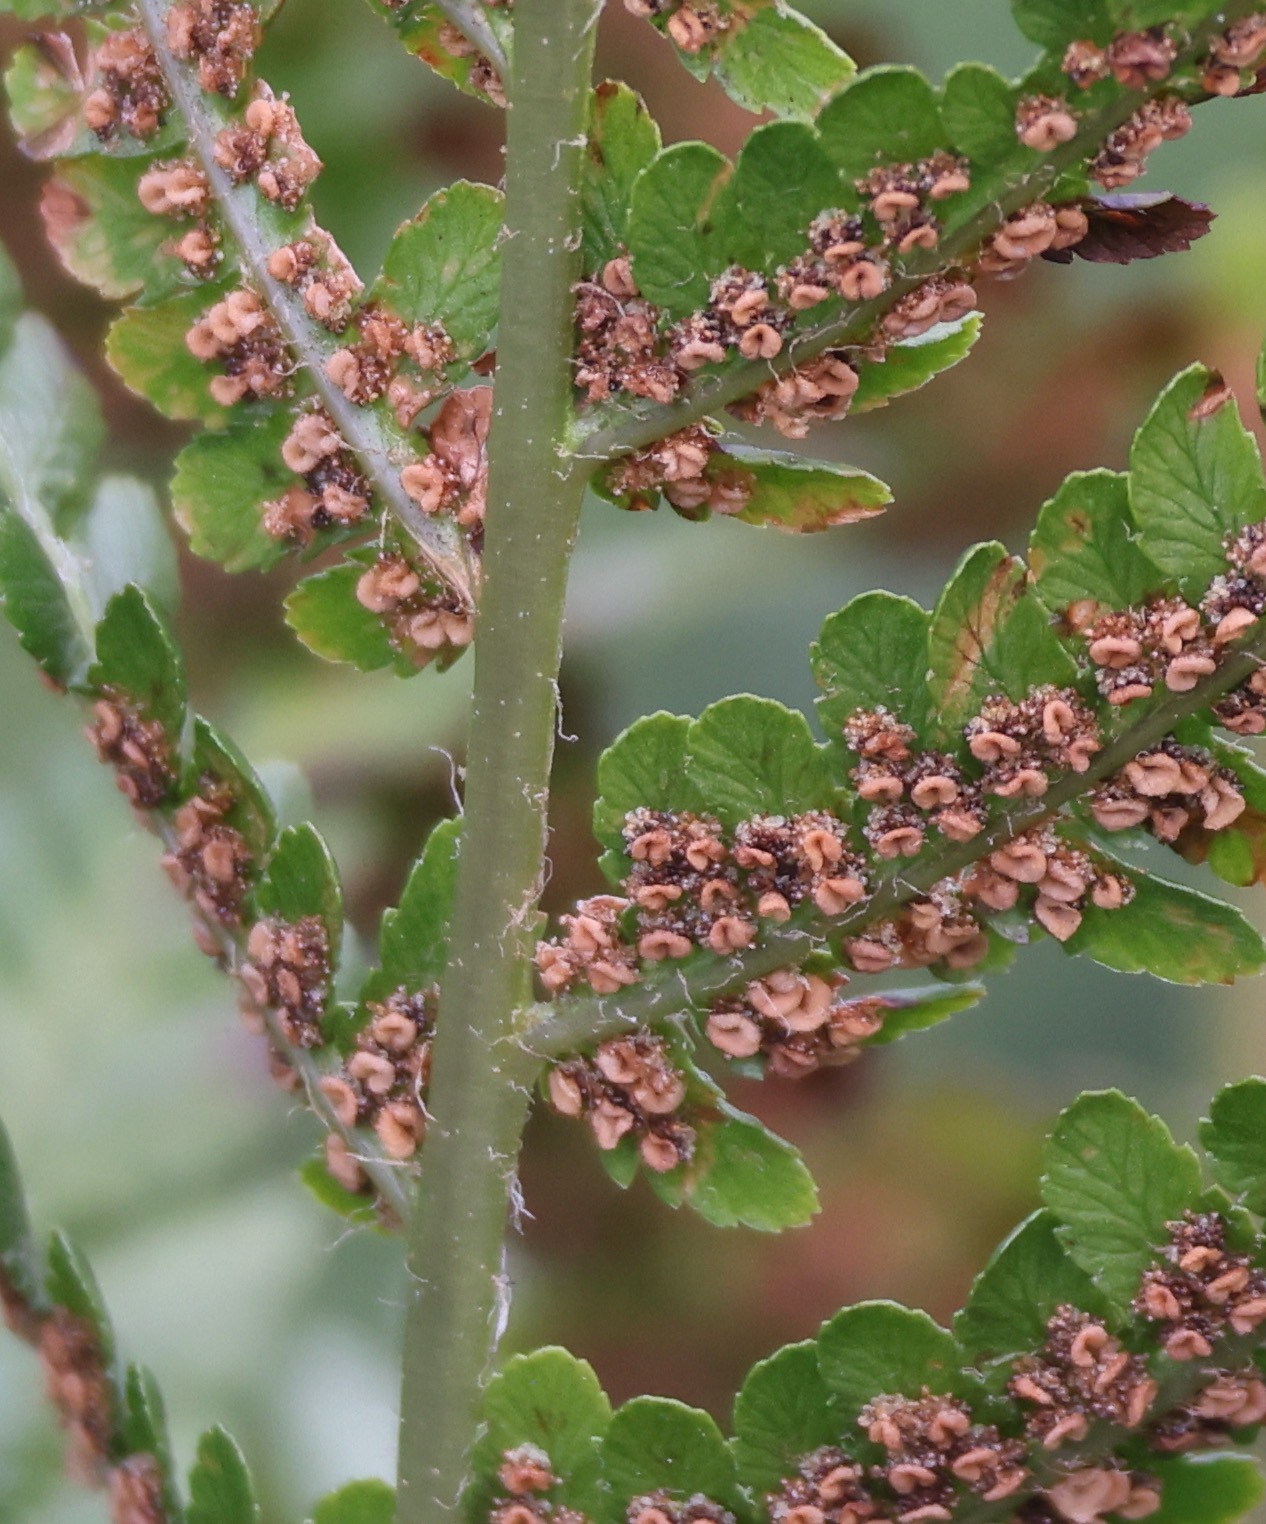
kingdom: Plantae
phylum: Tracheophyta
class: Polypodiopsida
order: Polypodiales
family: Dryopteridaceae
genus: Dryopteris
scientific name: Dryopteris filix-mas
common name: Male fern
